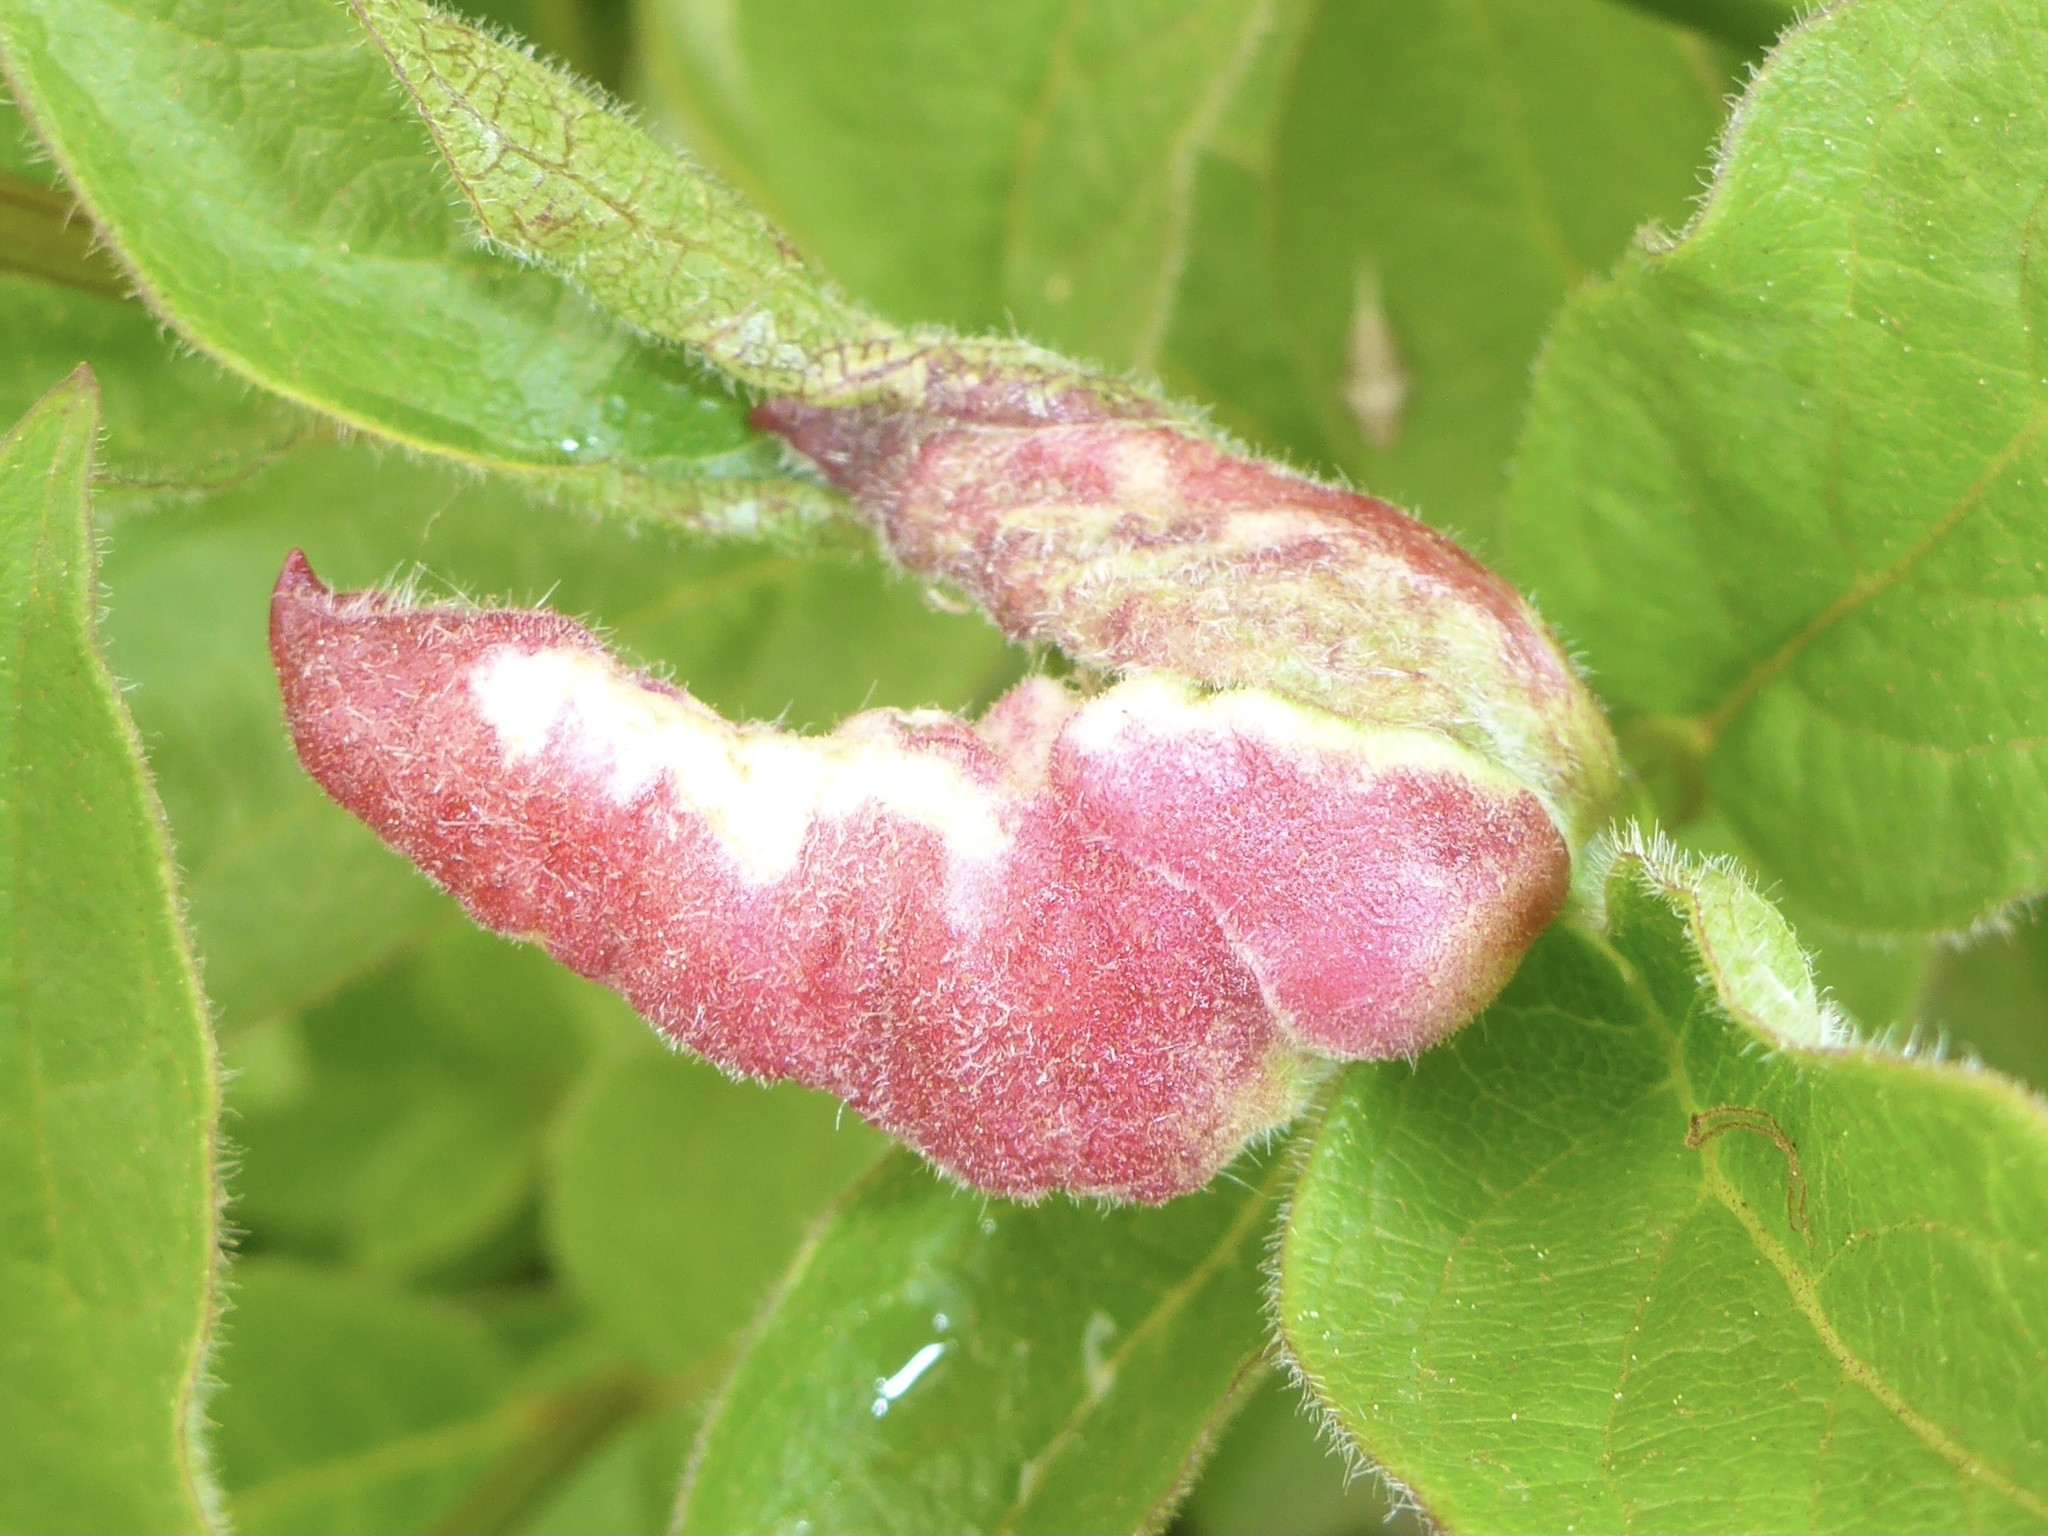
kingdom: Animalia
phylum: Arthropoda
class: Insecta
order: Diptera
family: Cecidomyiidae
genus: Dasineura
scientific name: Dasineura
